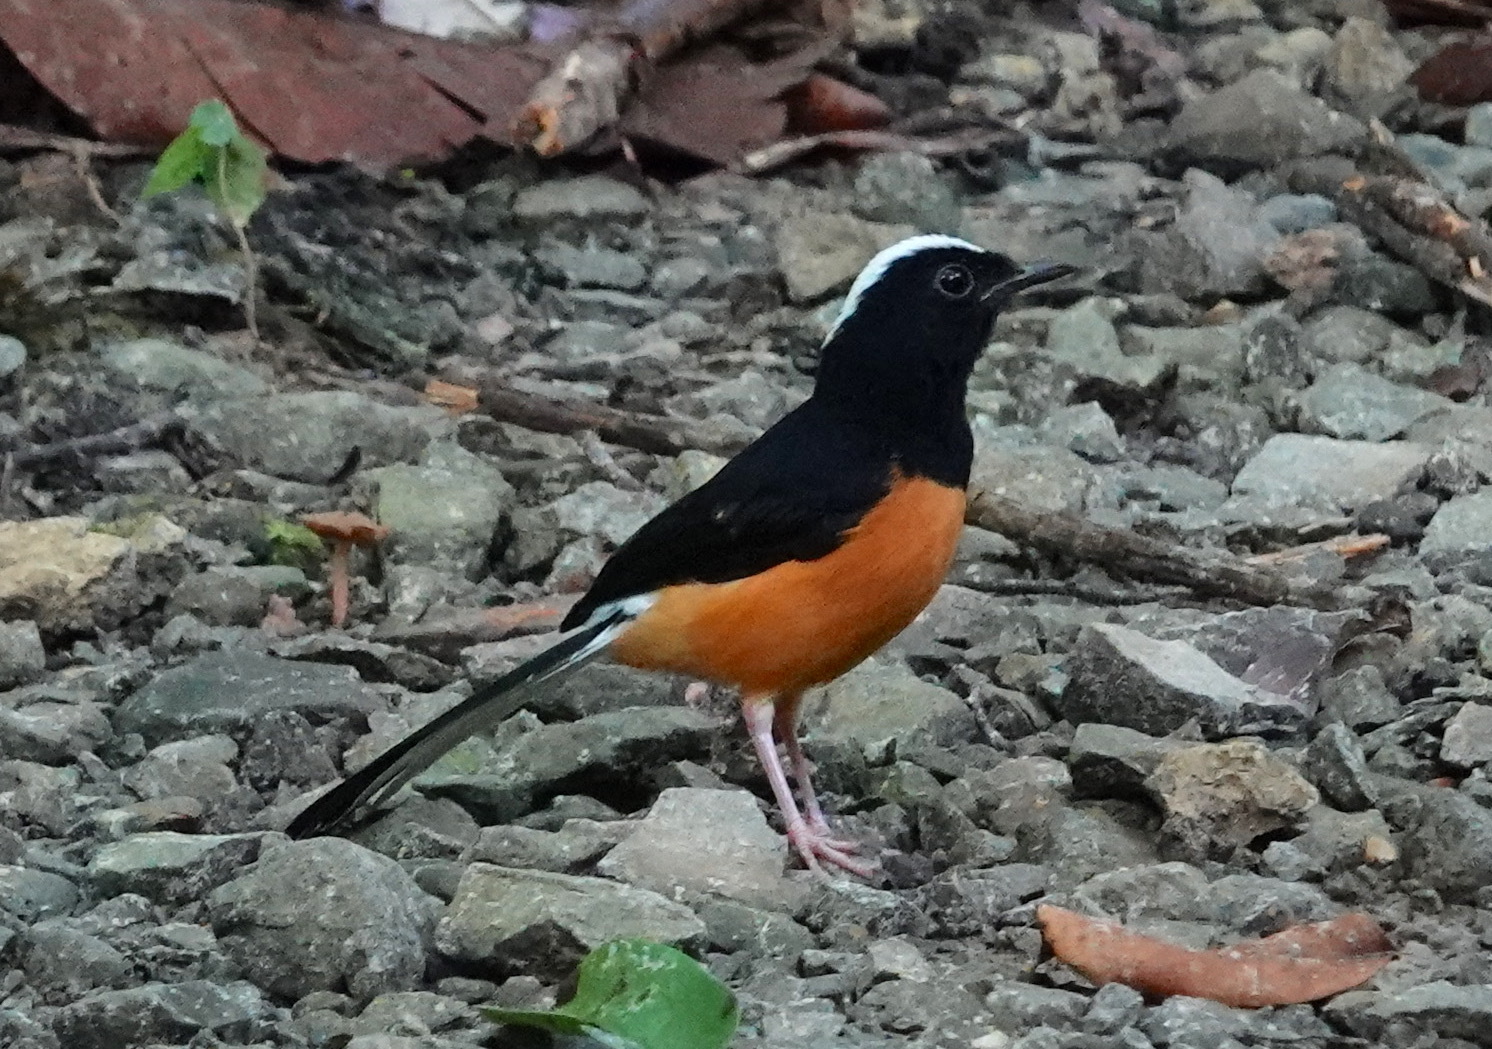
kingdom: Animalia
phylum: Chordata
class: Aves
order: Passeriformes
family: Muscicapidae
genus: Copsychus
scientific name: Copsychus stricklandii
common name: White-crowned shama
